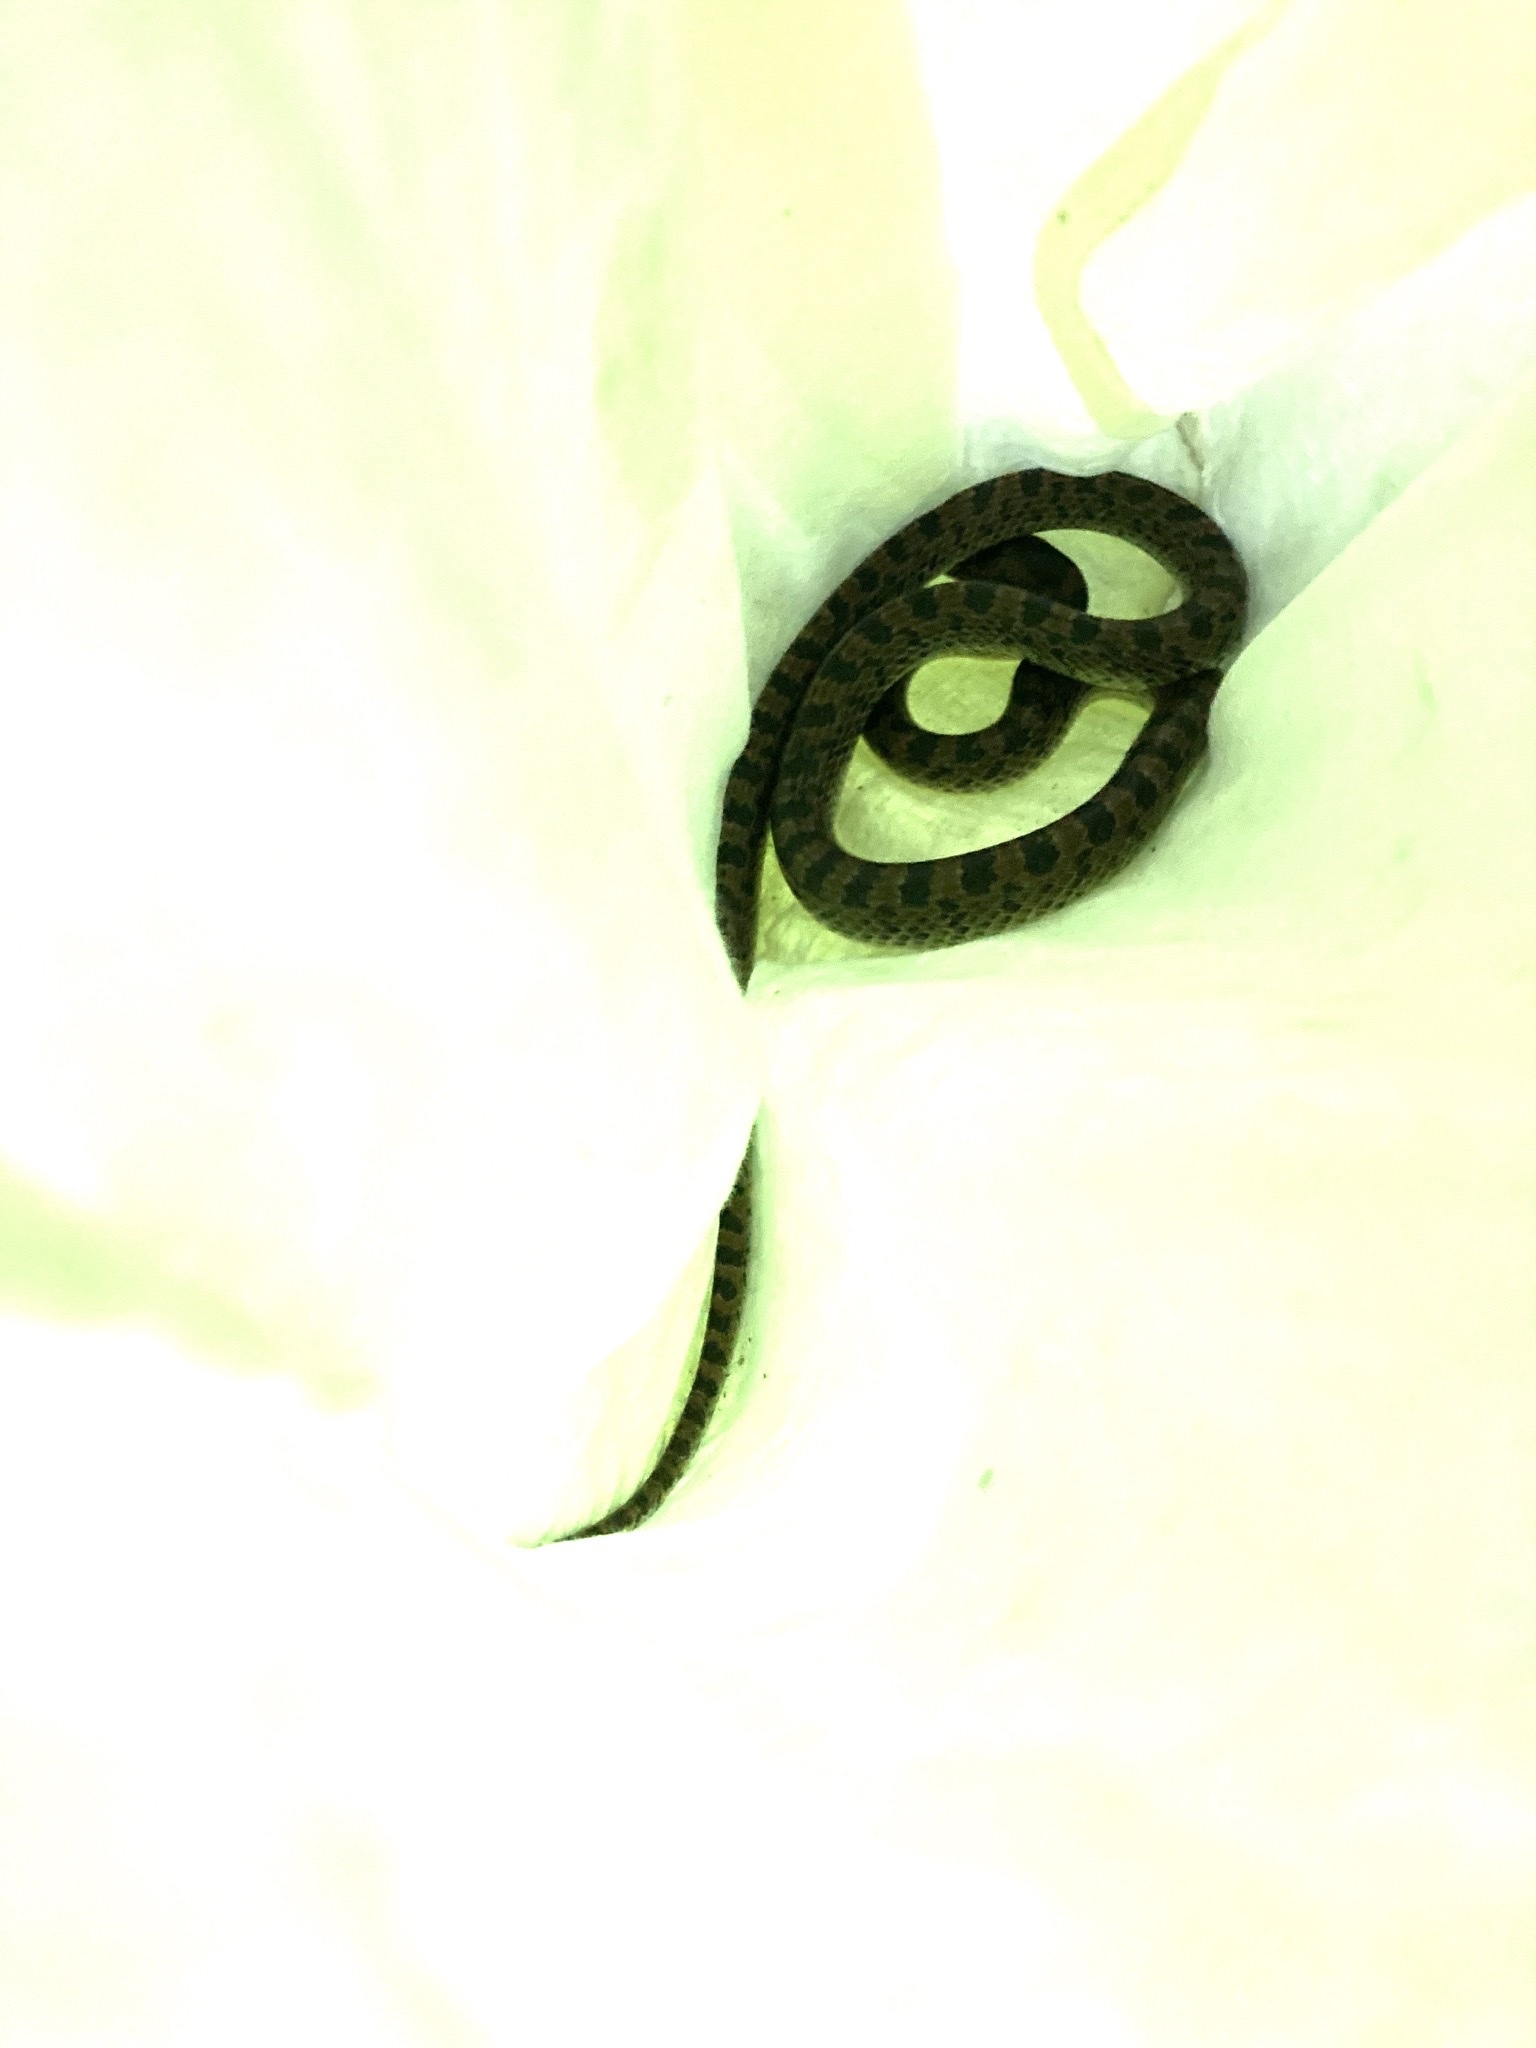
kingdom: Animalia
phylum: Chordata
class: Squamata
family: Colubridae
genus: Lycodon
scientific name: Lycodon rufozonatus
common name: Red-banded snake
